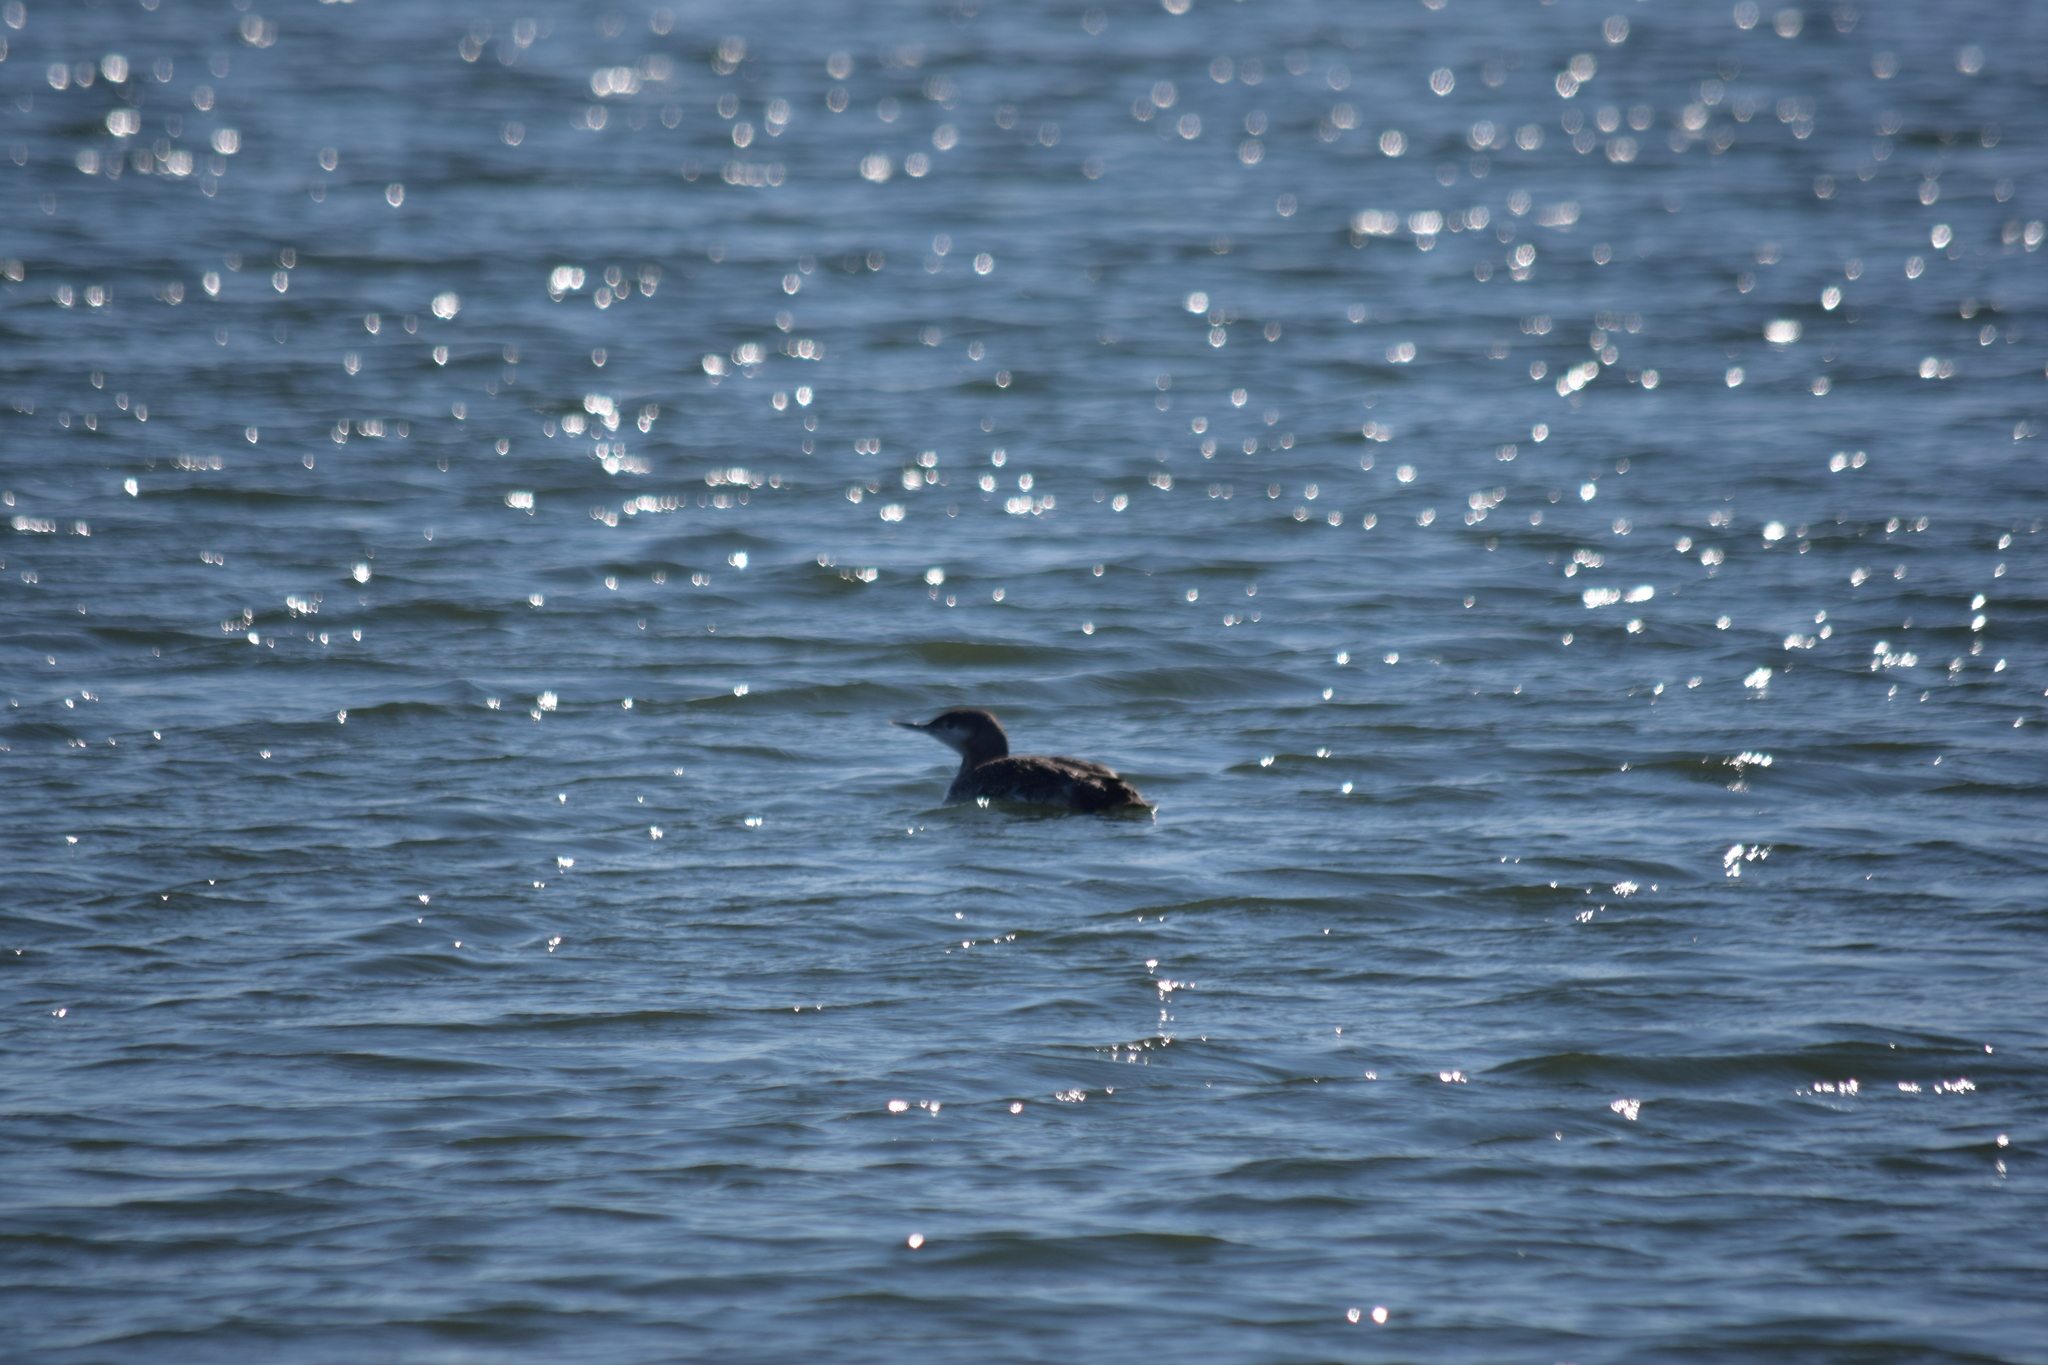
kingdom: Animalia
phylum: Chordata
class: Aves
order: Gaviiformes
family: Gaviidae
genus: Gavia
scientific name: Gavia immer
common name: Common loon
